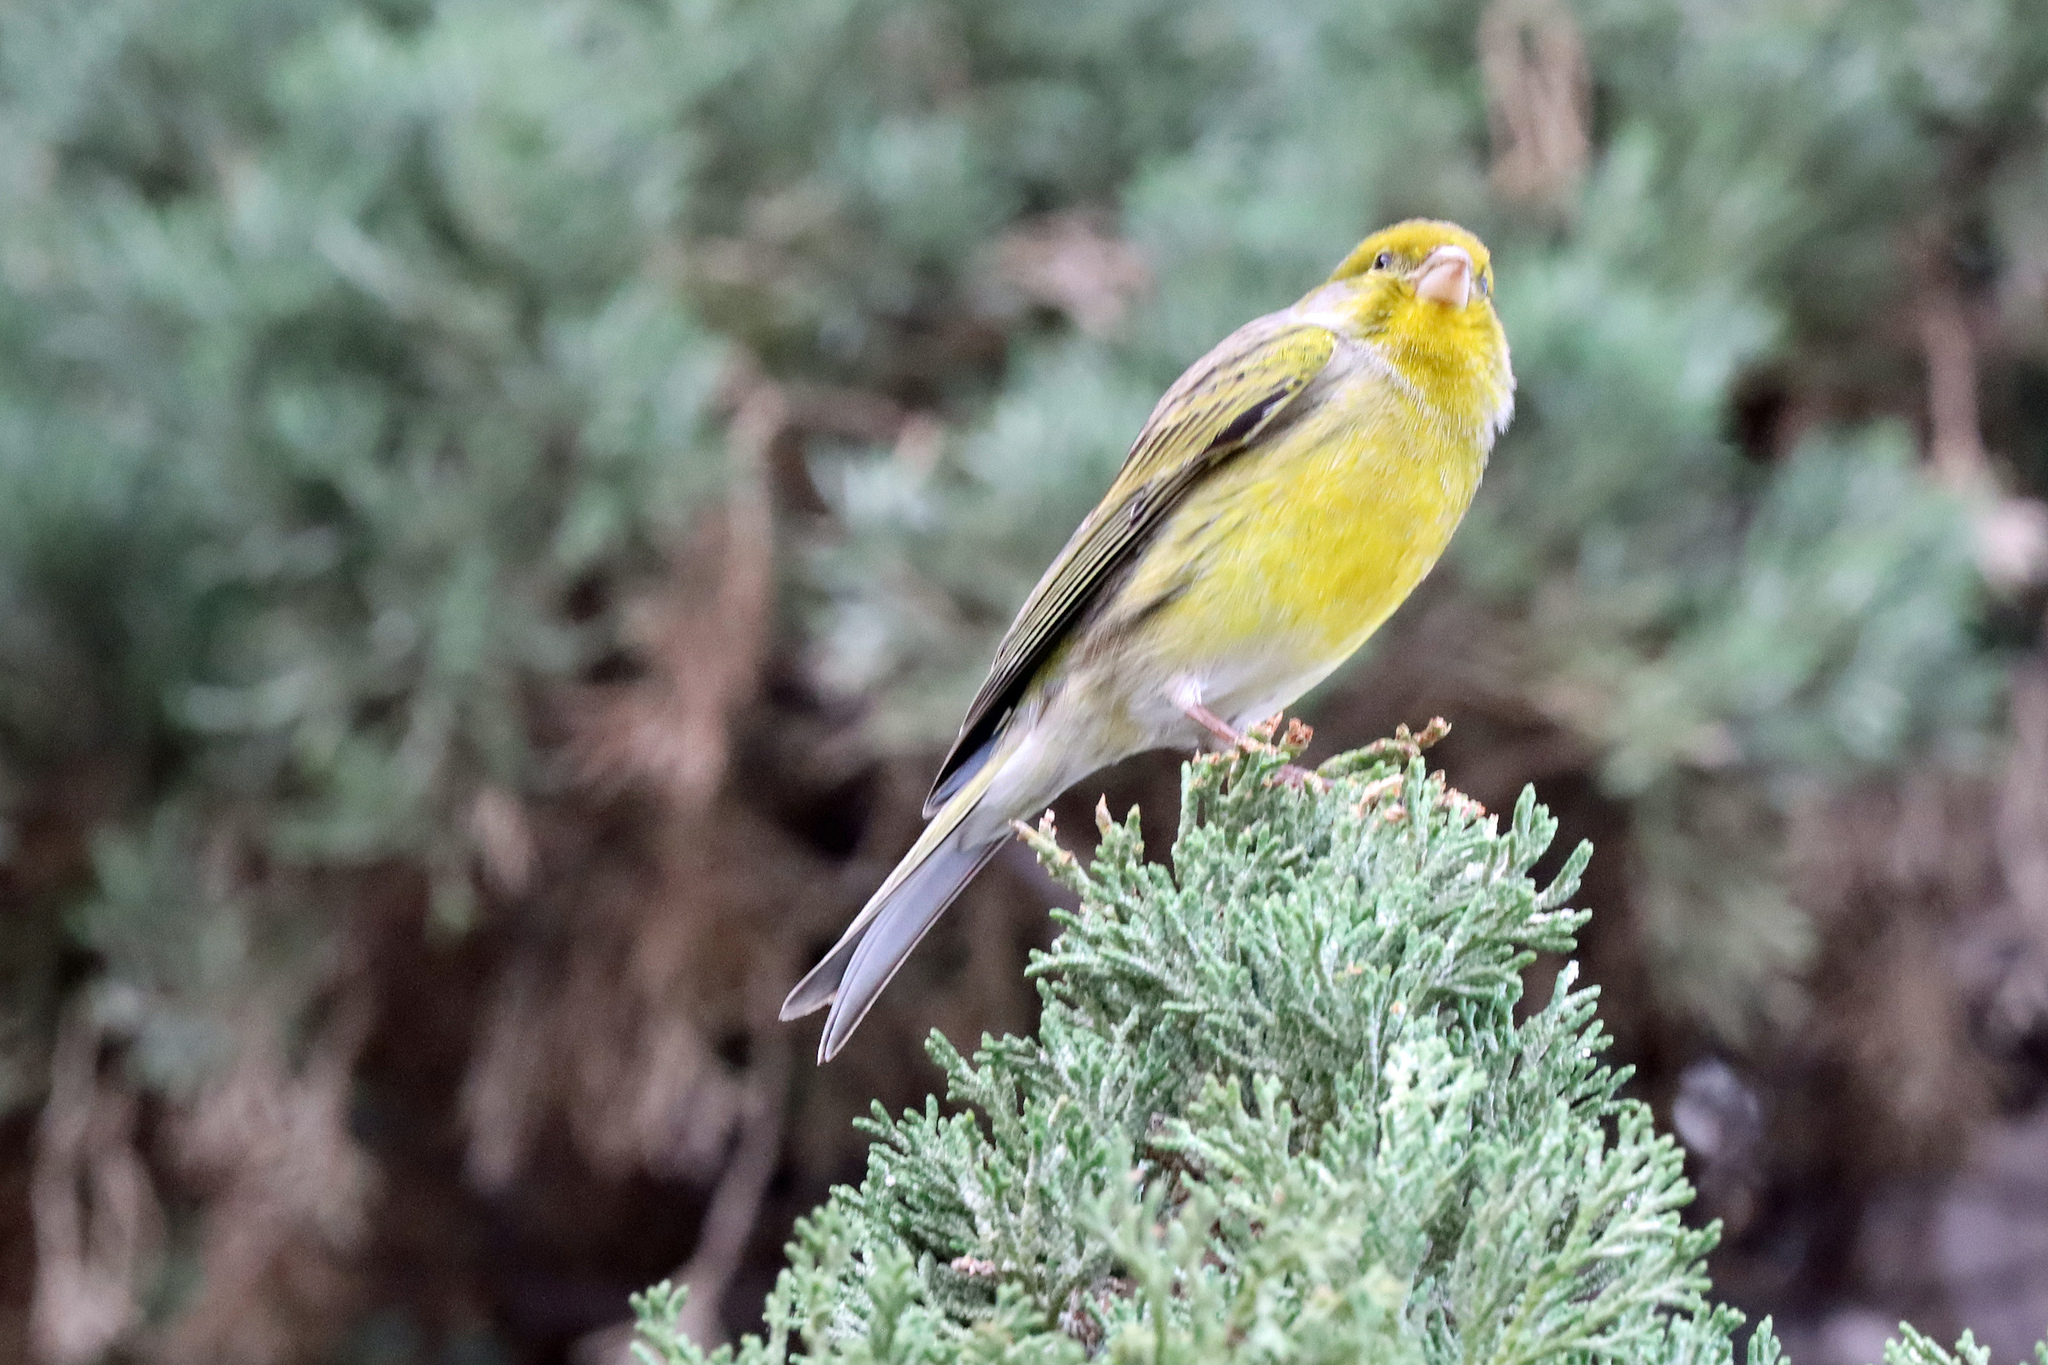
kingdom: Animalia
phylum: Chordata
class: Aves
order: Passeriformes
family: Fringillidae
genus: Serinus
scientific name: Serinus canaria
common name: Atlantic canary
